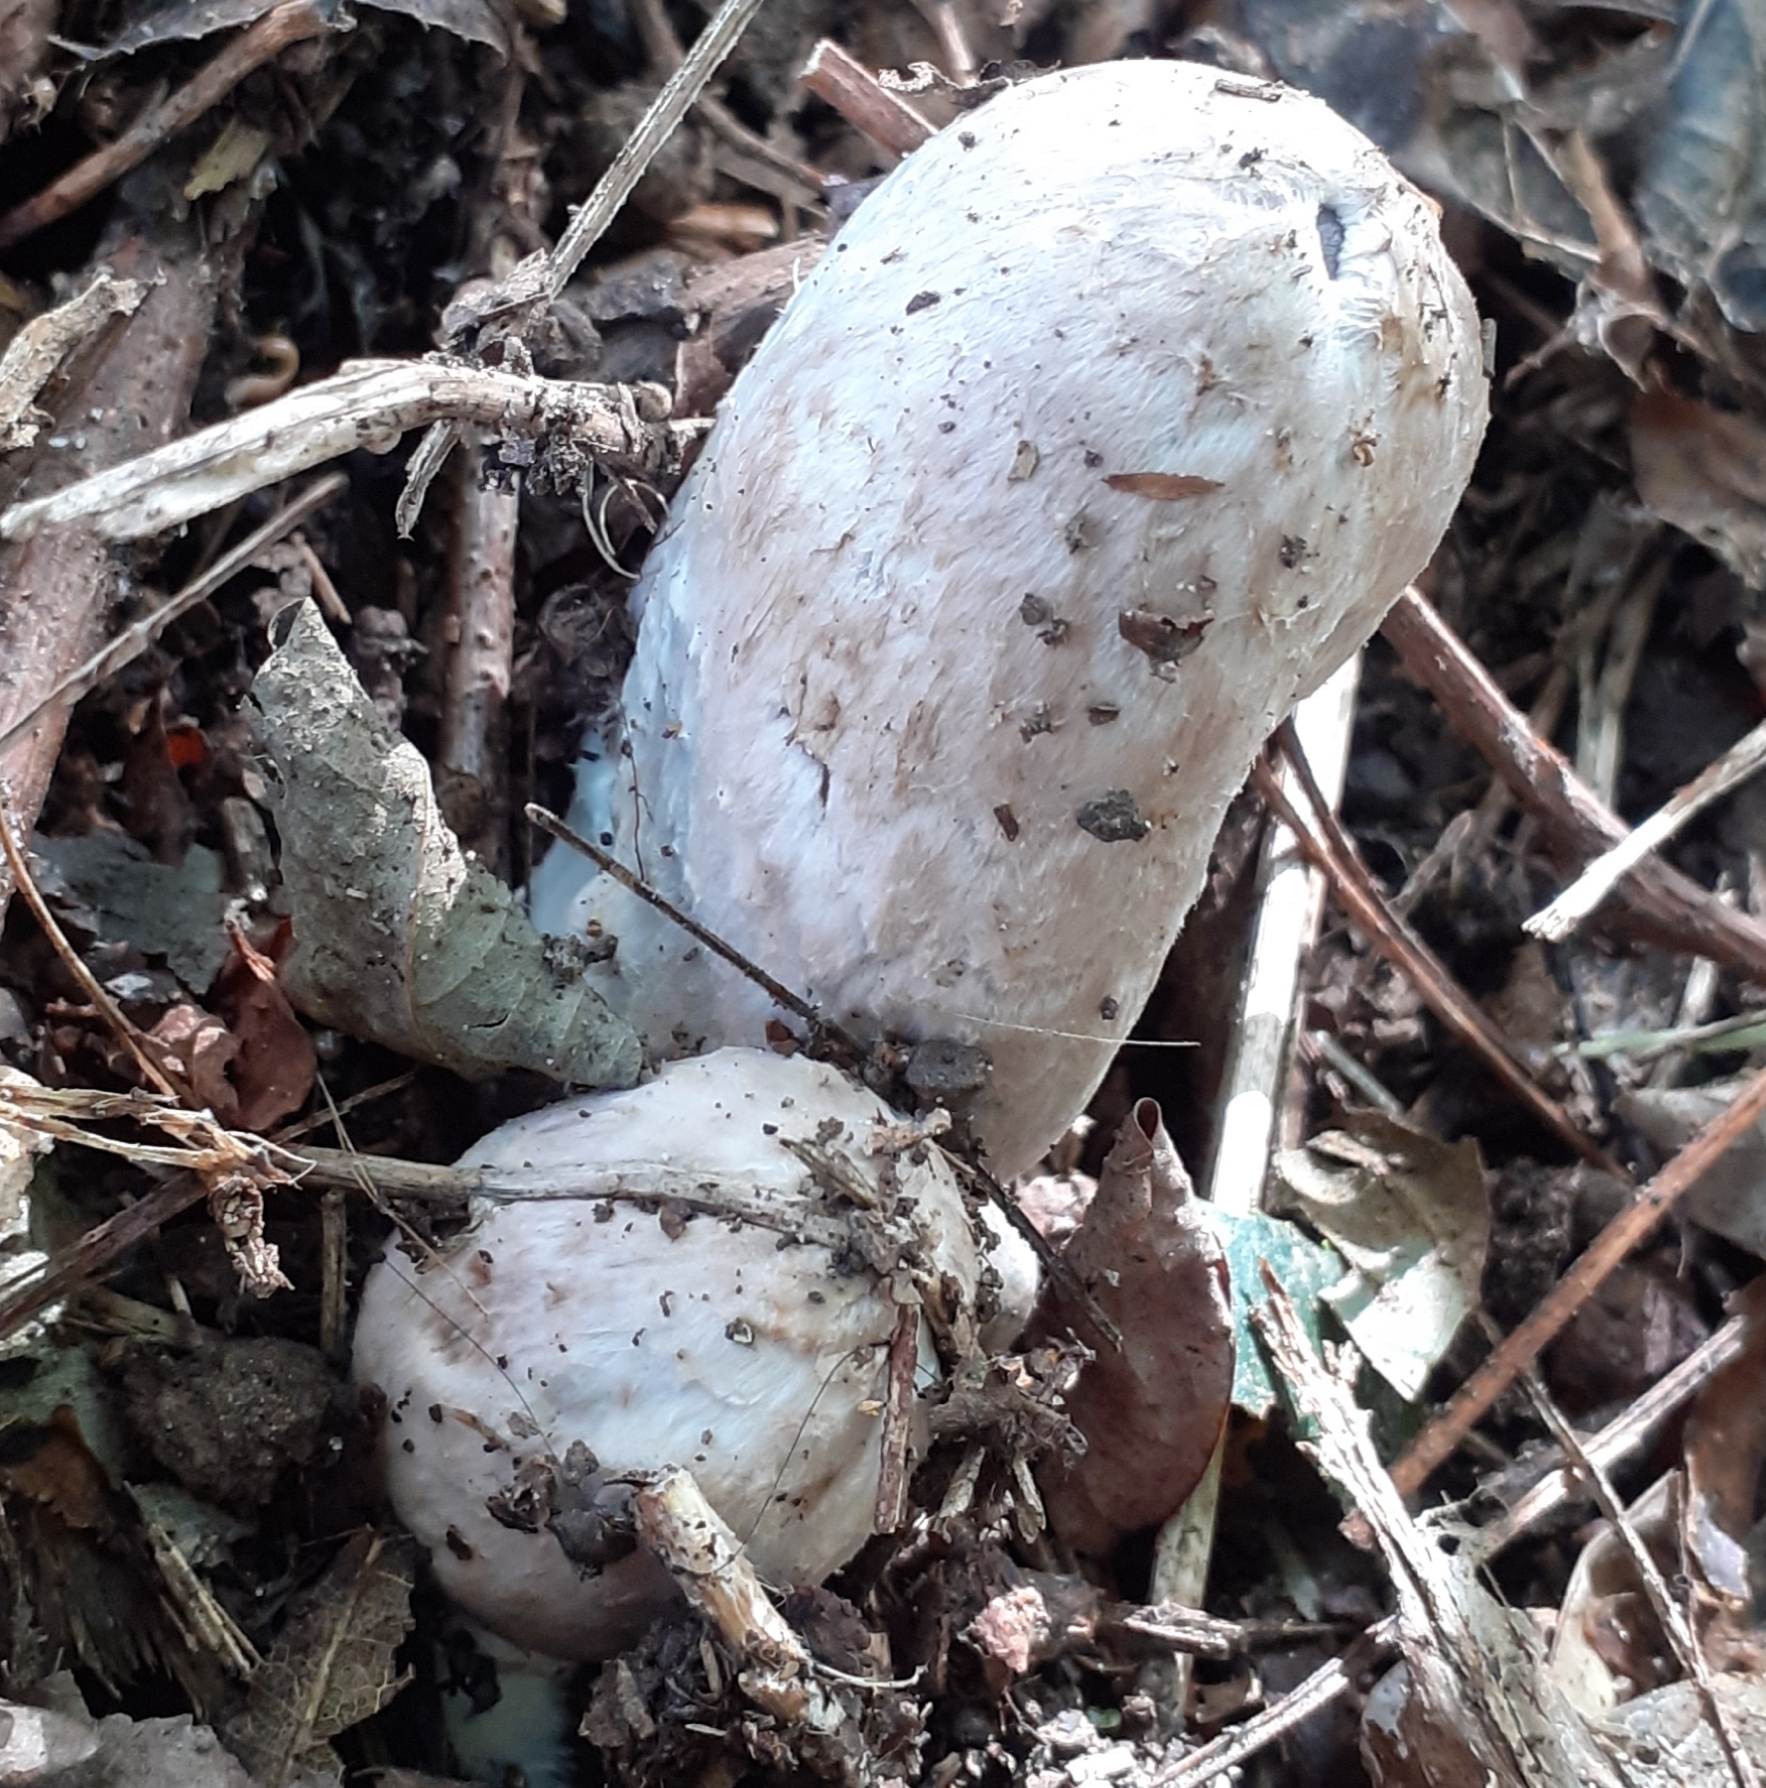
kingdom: Fungi
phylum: Basidiomycota
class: Agaricomycetes
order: Agaricales
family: Agaricaceae
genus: Coprinus
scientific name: Coprinus comatus
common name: Lawyer's wig
